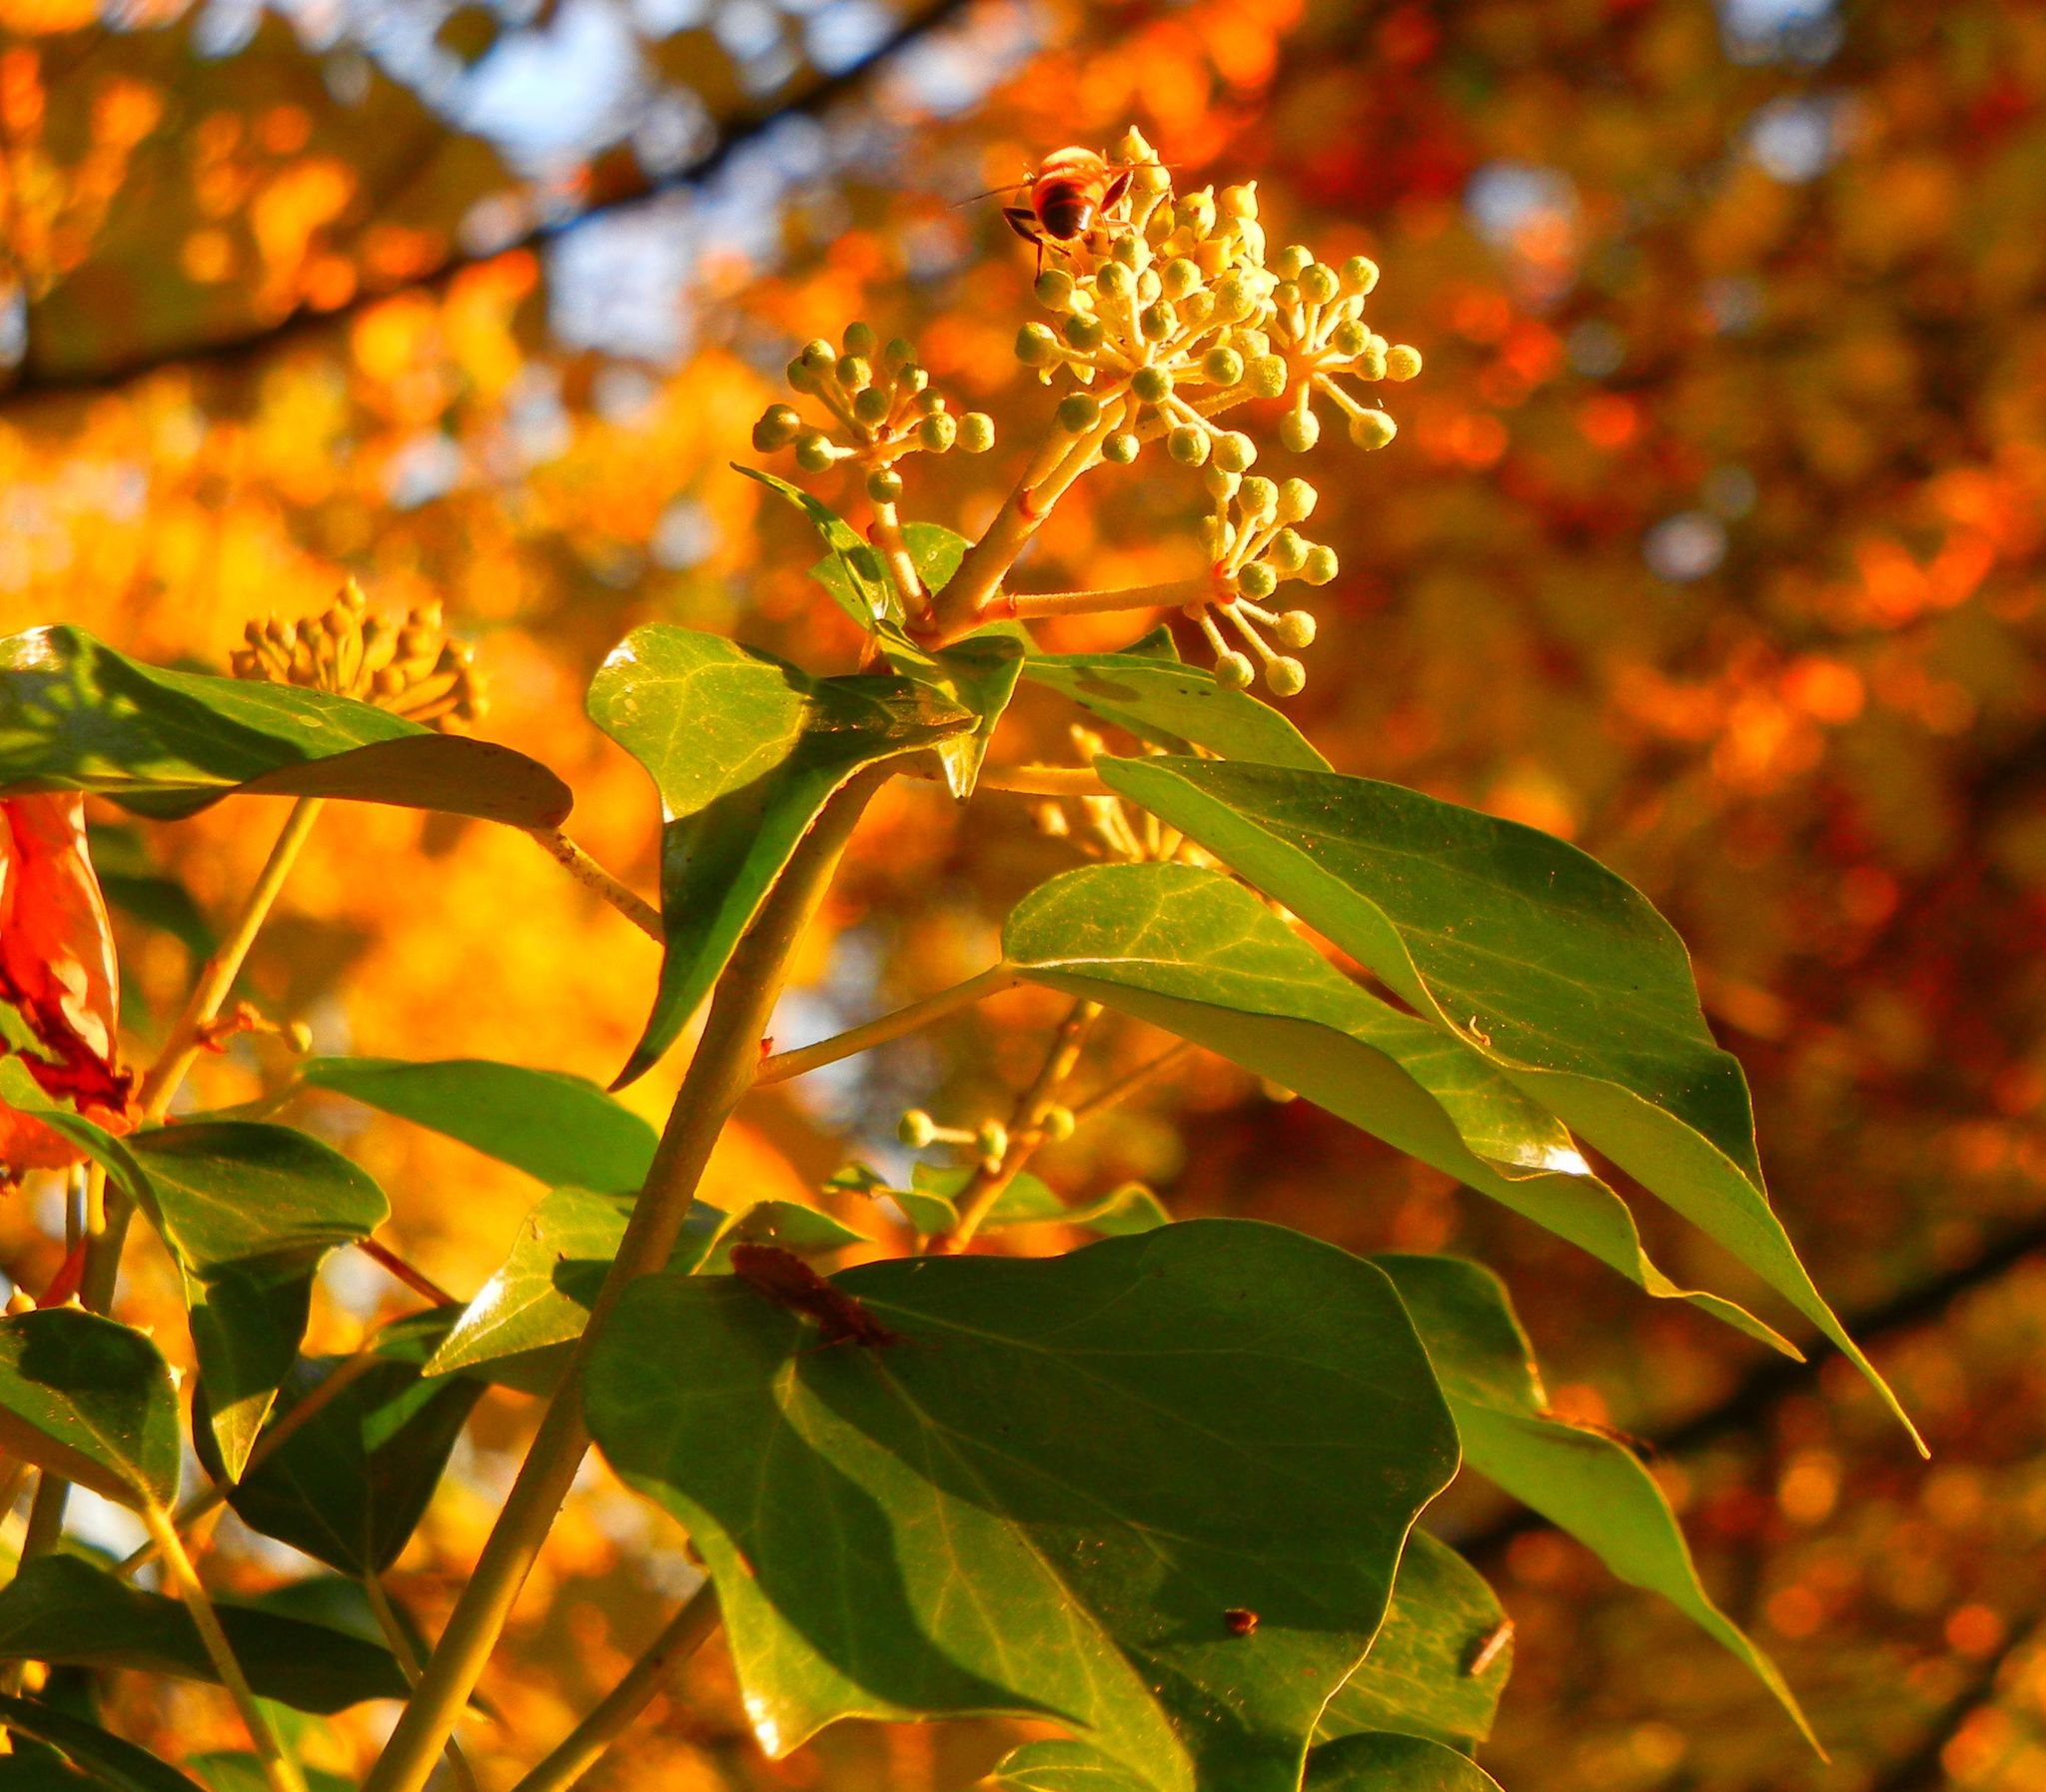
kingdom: Plantae
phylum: Tracheophyta
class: Magnoliopsida
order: Apiales
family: Araliaceae
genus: Hedera
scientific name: Hedera helix
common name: Ivy
